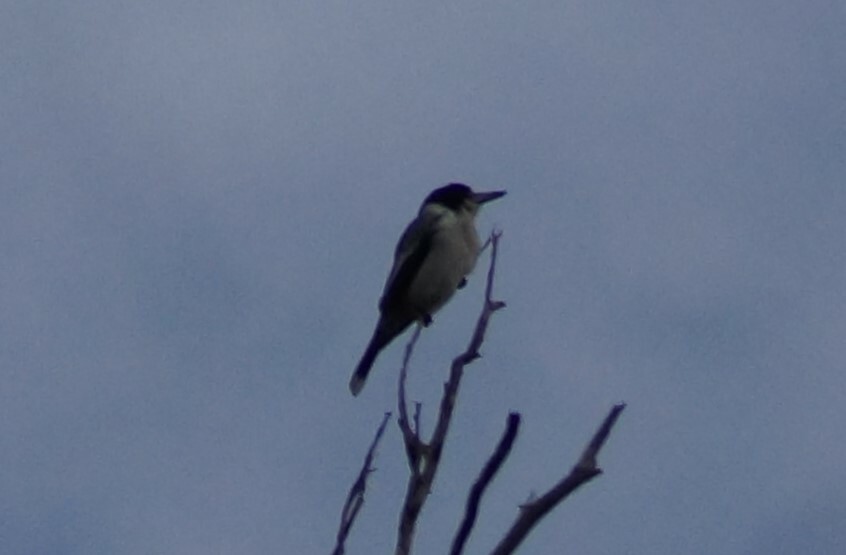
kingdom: Animalia
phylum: Chordata
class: Aves
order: Passeriformes
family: Cracticidae
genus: Cracticus
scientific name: Cracticus torquatus
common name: Grey butcherbird
